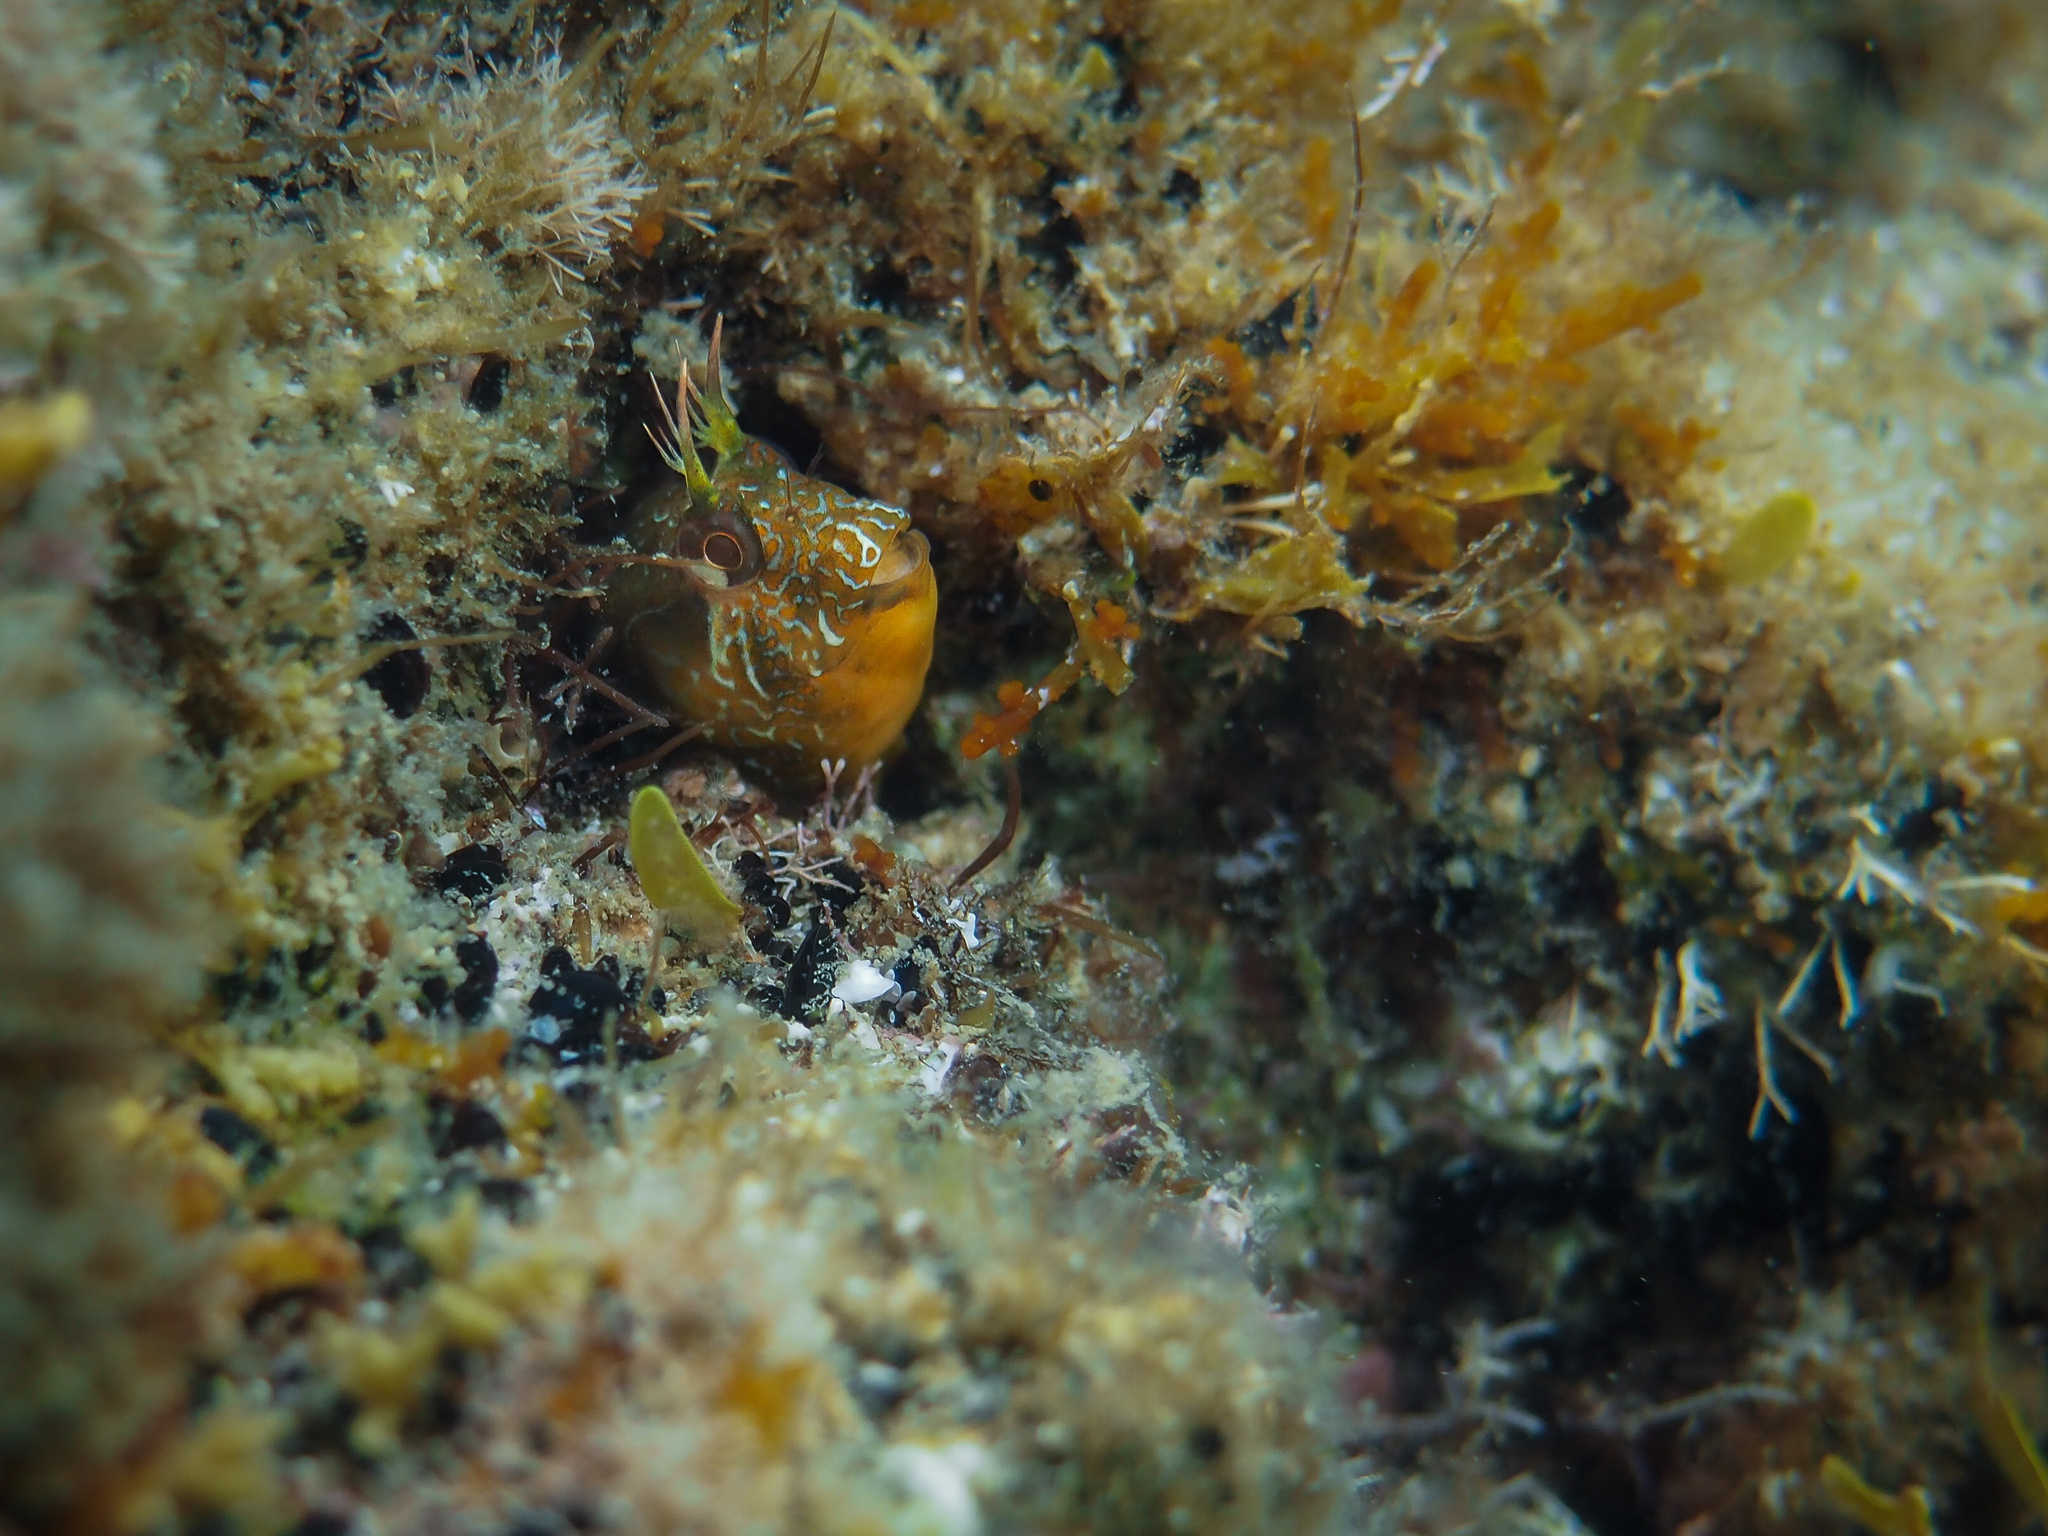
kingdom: Animalia
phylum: Chordata
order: Perciformes
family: Blenniidae
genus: Parablennius
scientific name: Parablennius incognitus
